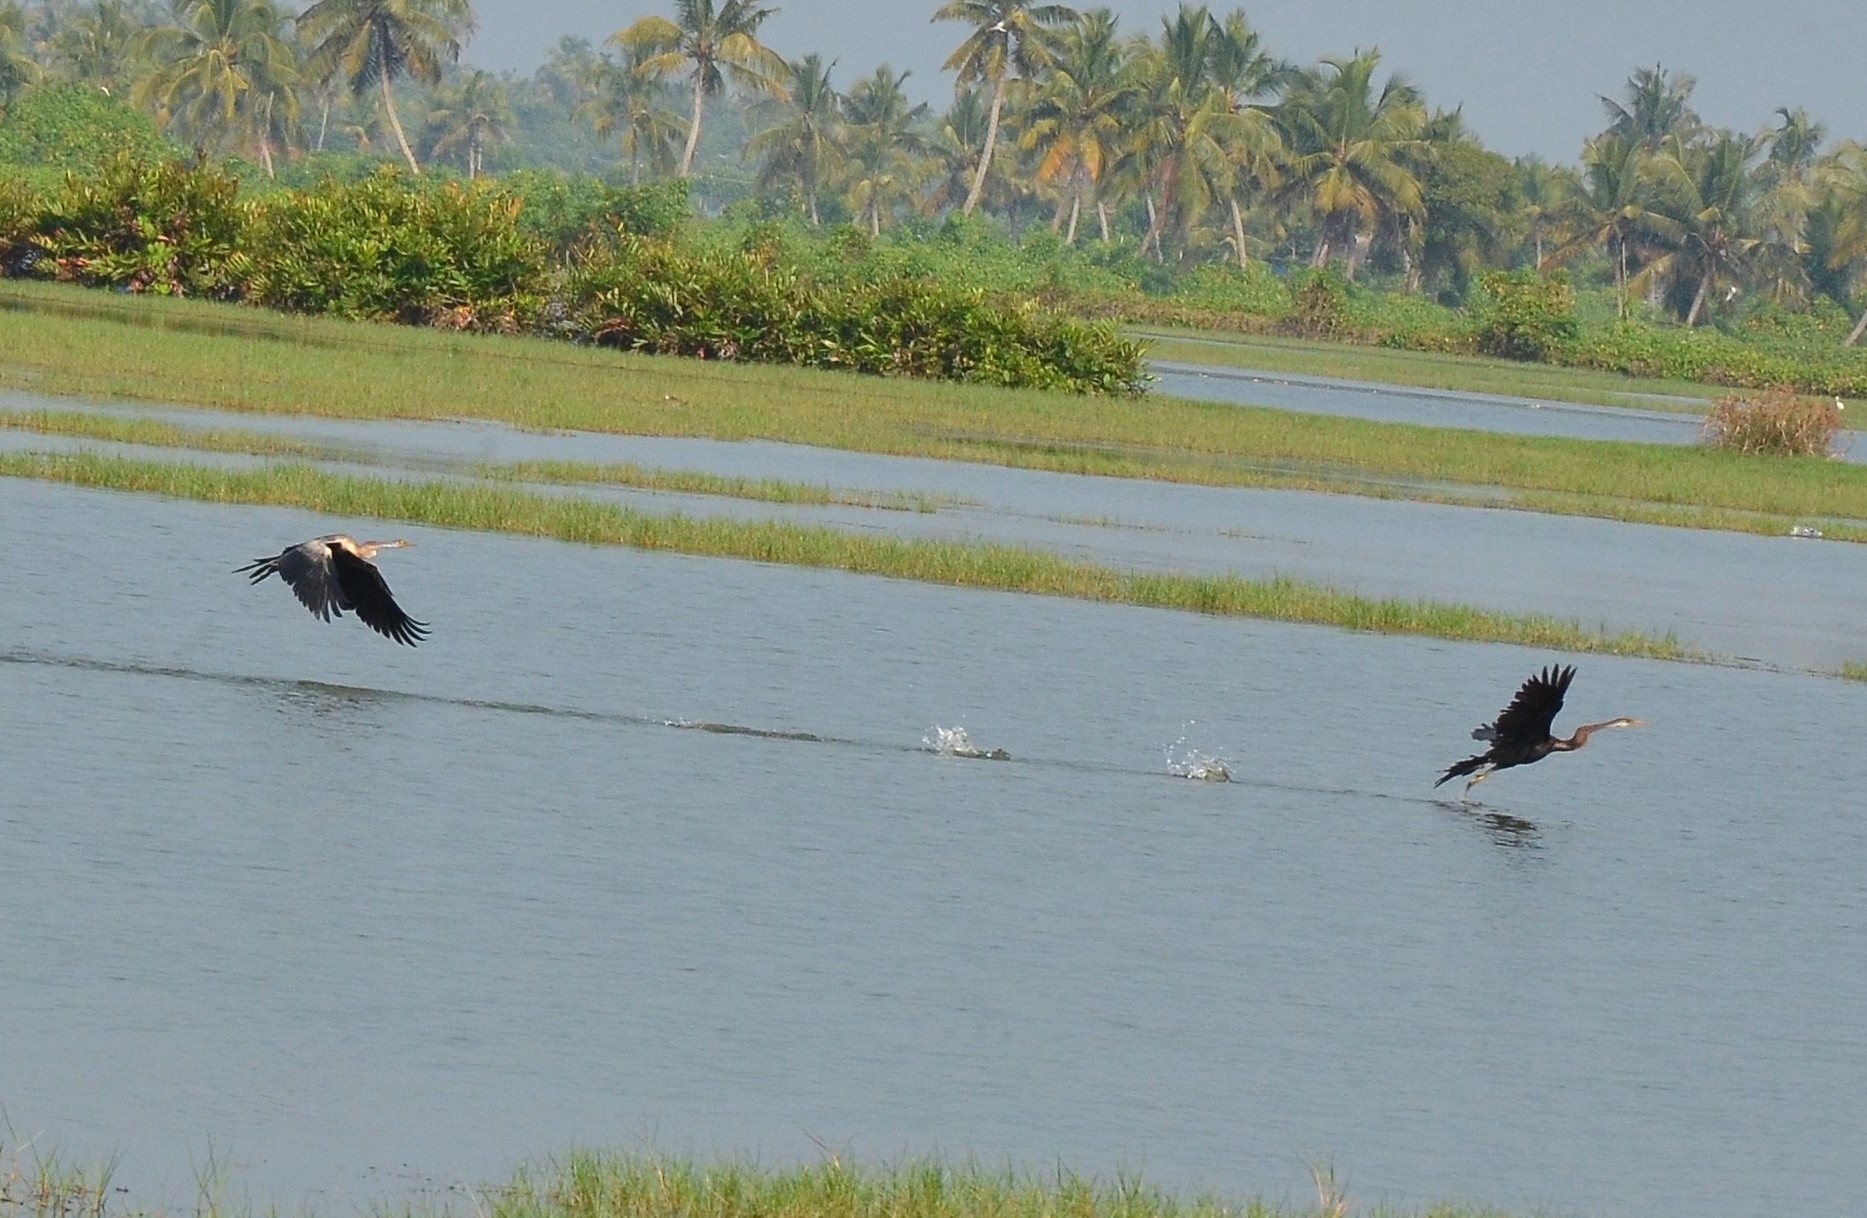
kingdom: Animalia
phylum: Chordata
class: Aves
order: Suliformes
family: Anhingidae
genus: Anhinga
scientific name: Anhinga melanogaster
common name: Oriental darter
